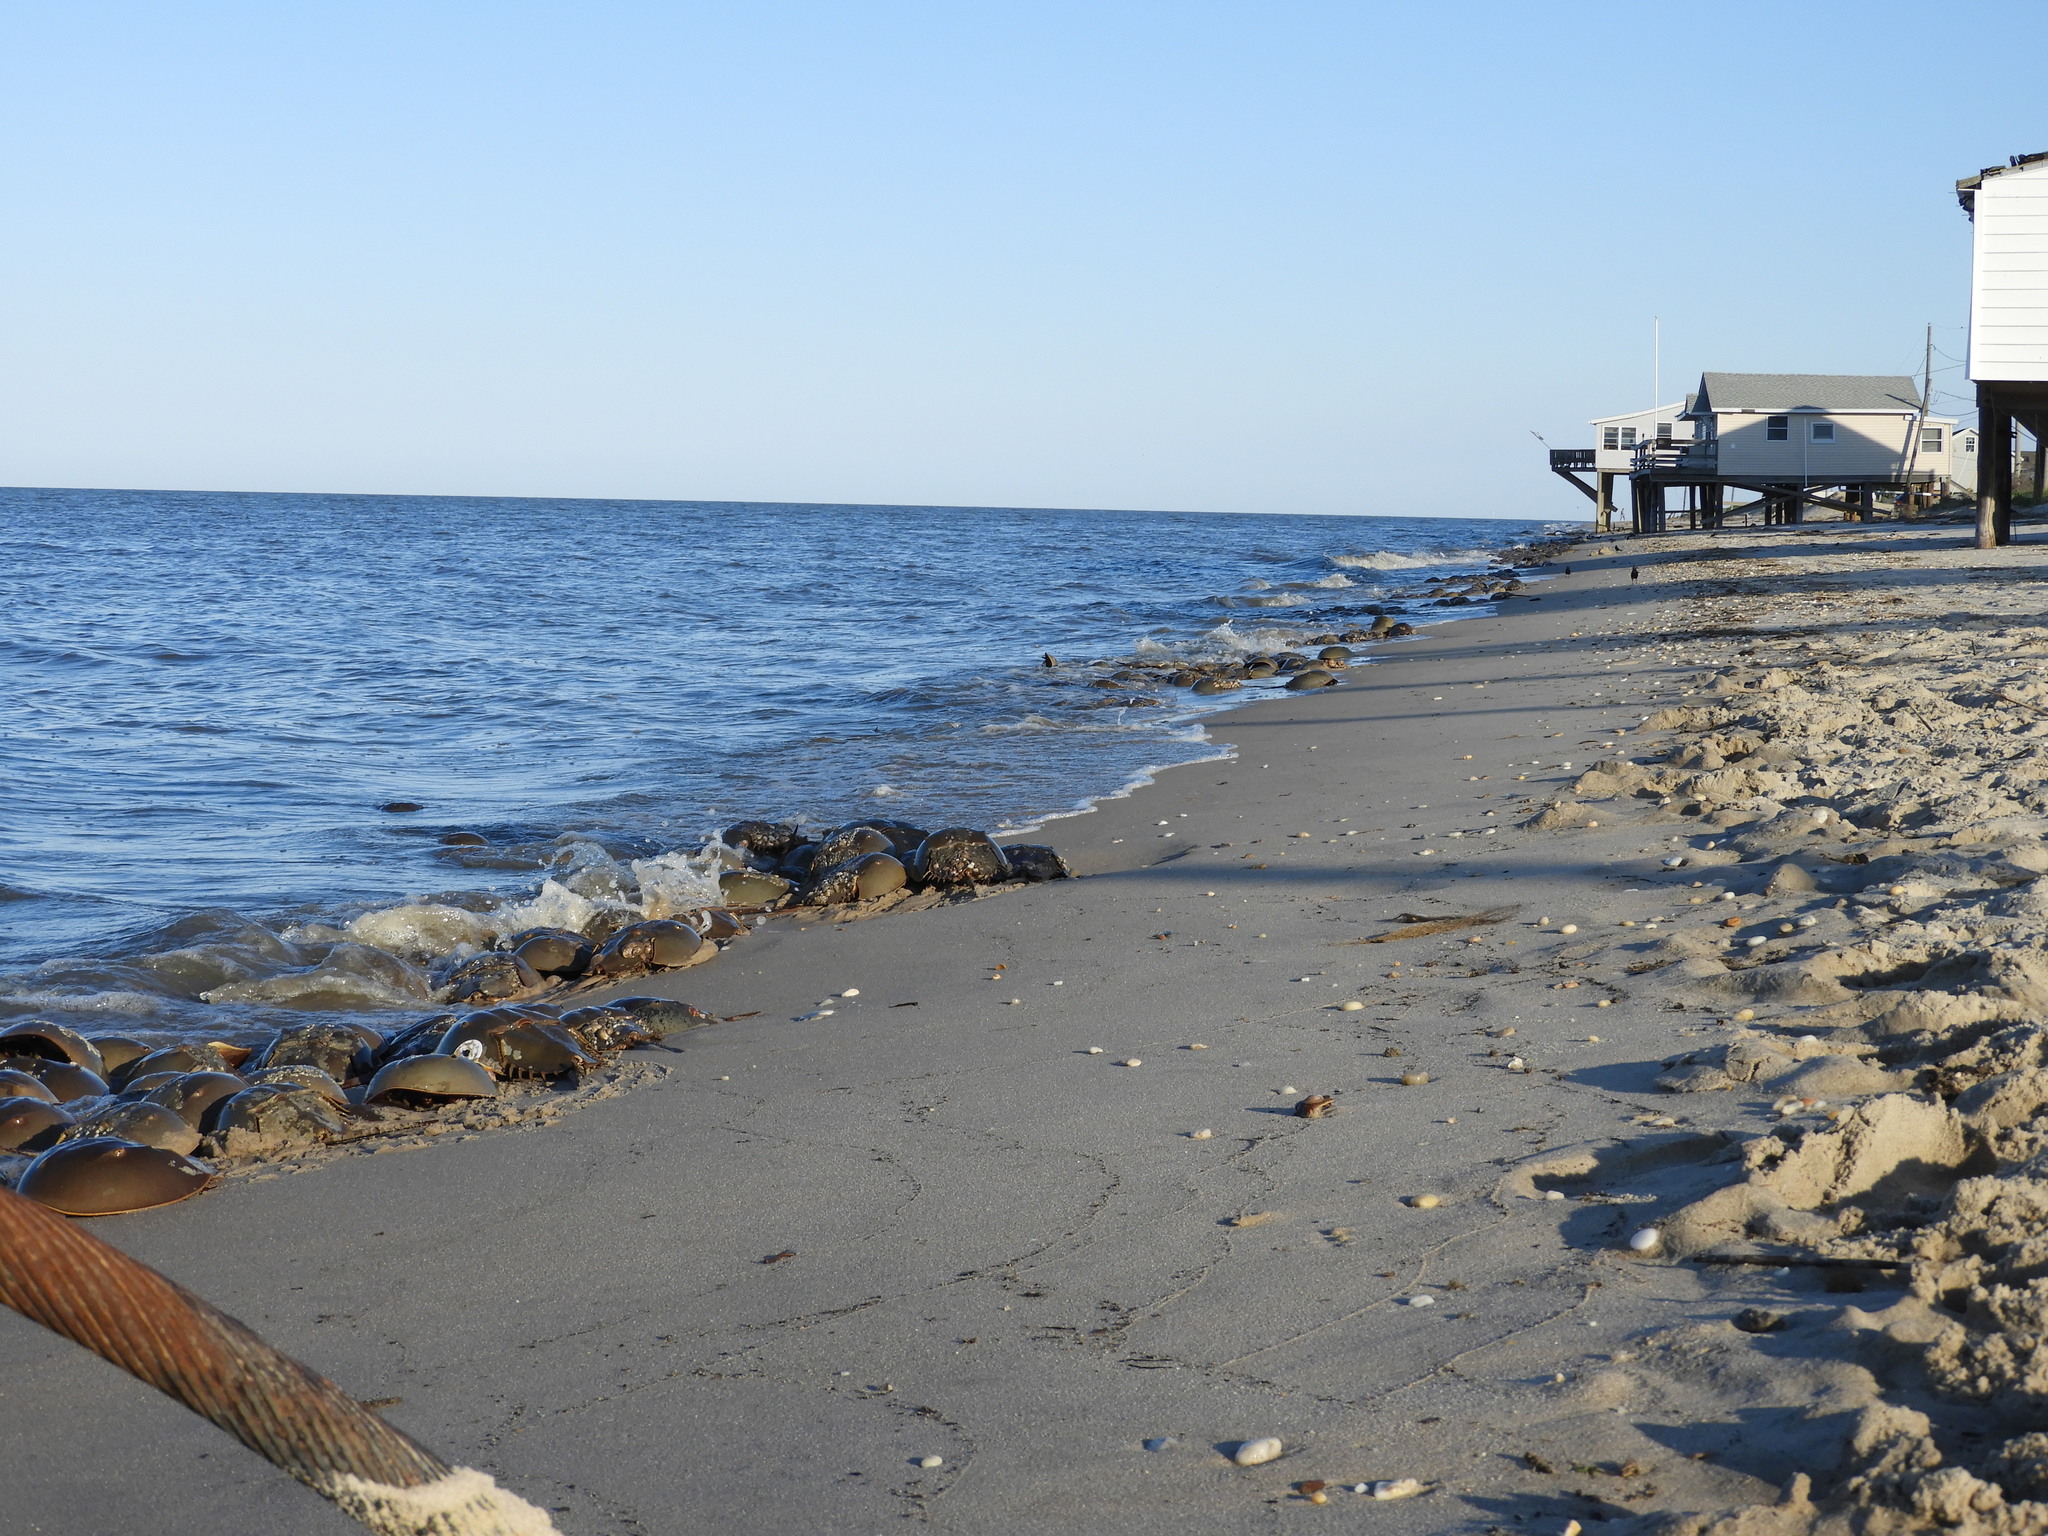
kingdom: Animalia
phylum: Arthropoda
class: Merostomata
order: Xiphosurida
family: Limulidae
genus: Limulus
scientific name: Limulus polyphemus
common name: Horseshoe crab
